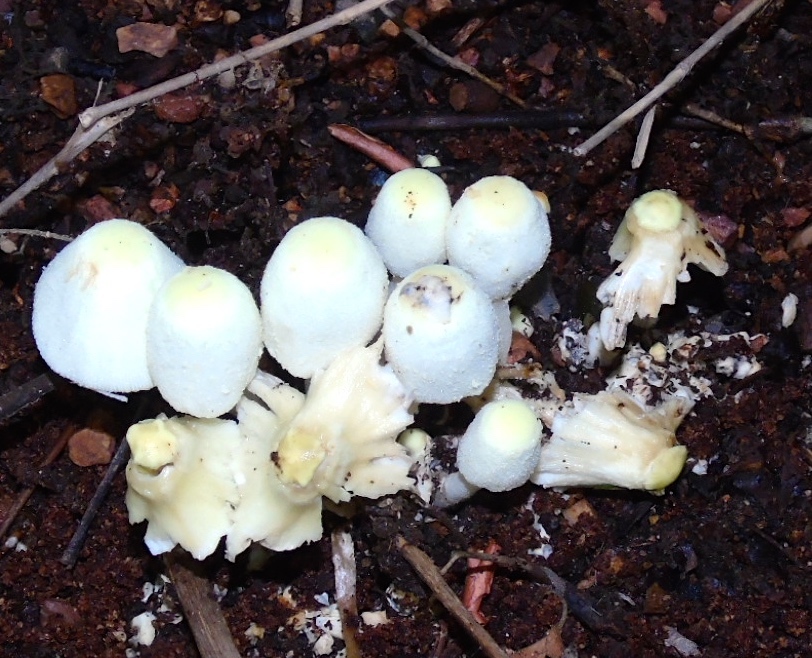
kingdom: Fungi
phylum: Basidiomycota
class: Agaricomycetes
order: Agaricales
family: Agaricaceae
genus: Leucocoprinus
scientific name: Leucocoprinus cepistipes
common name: Onion-stalk parasol
